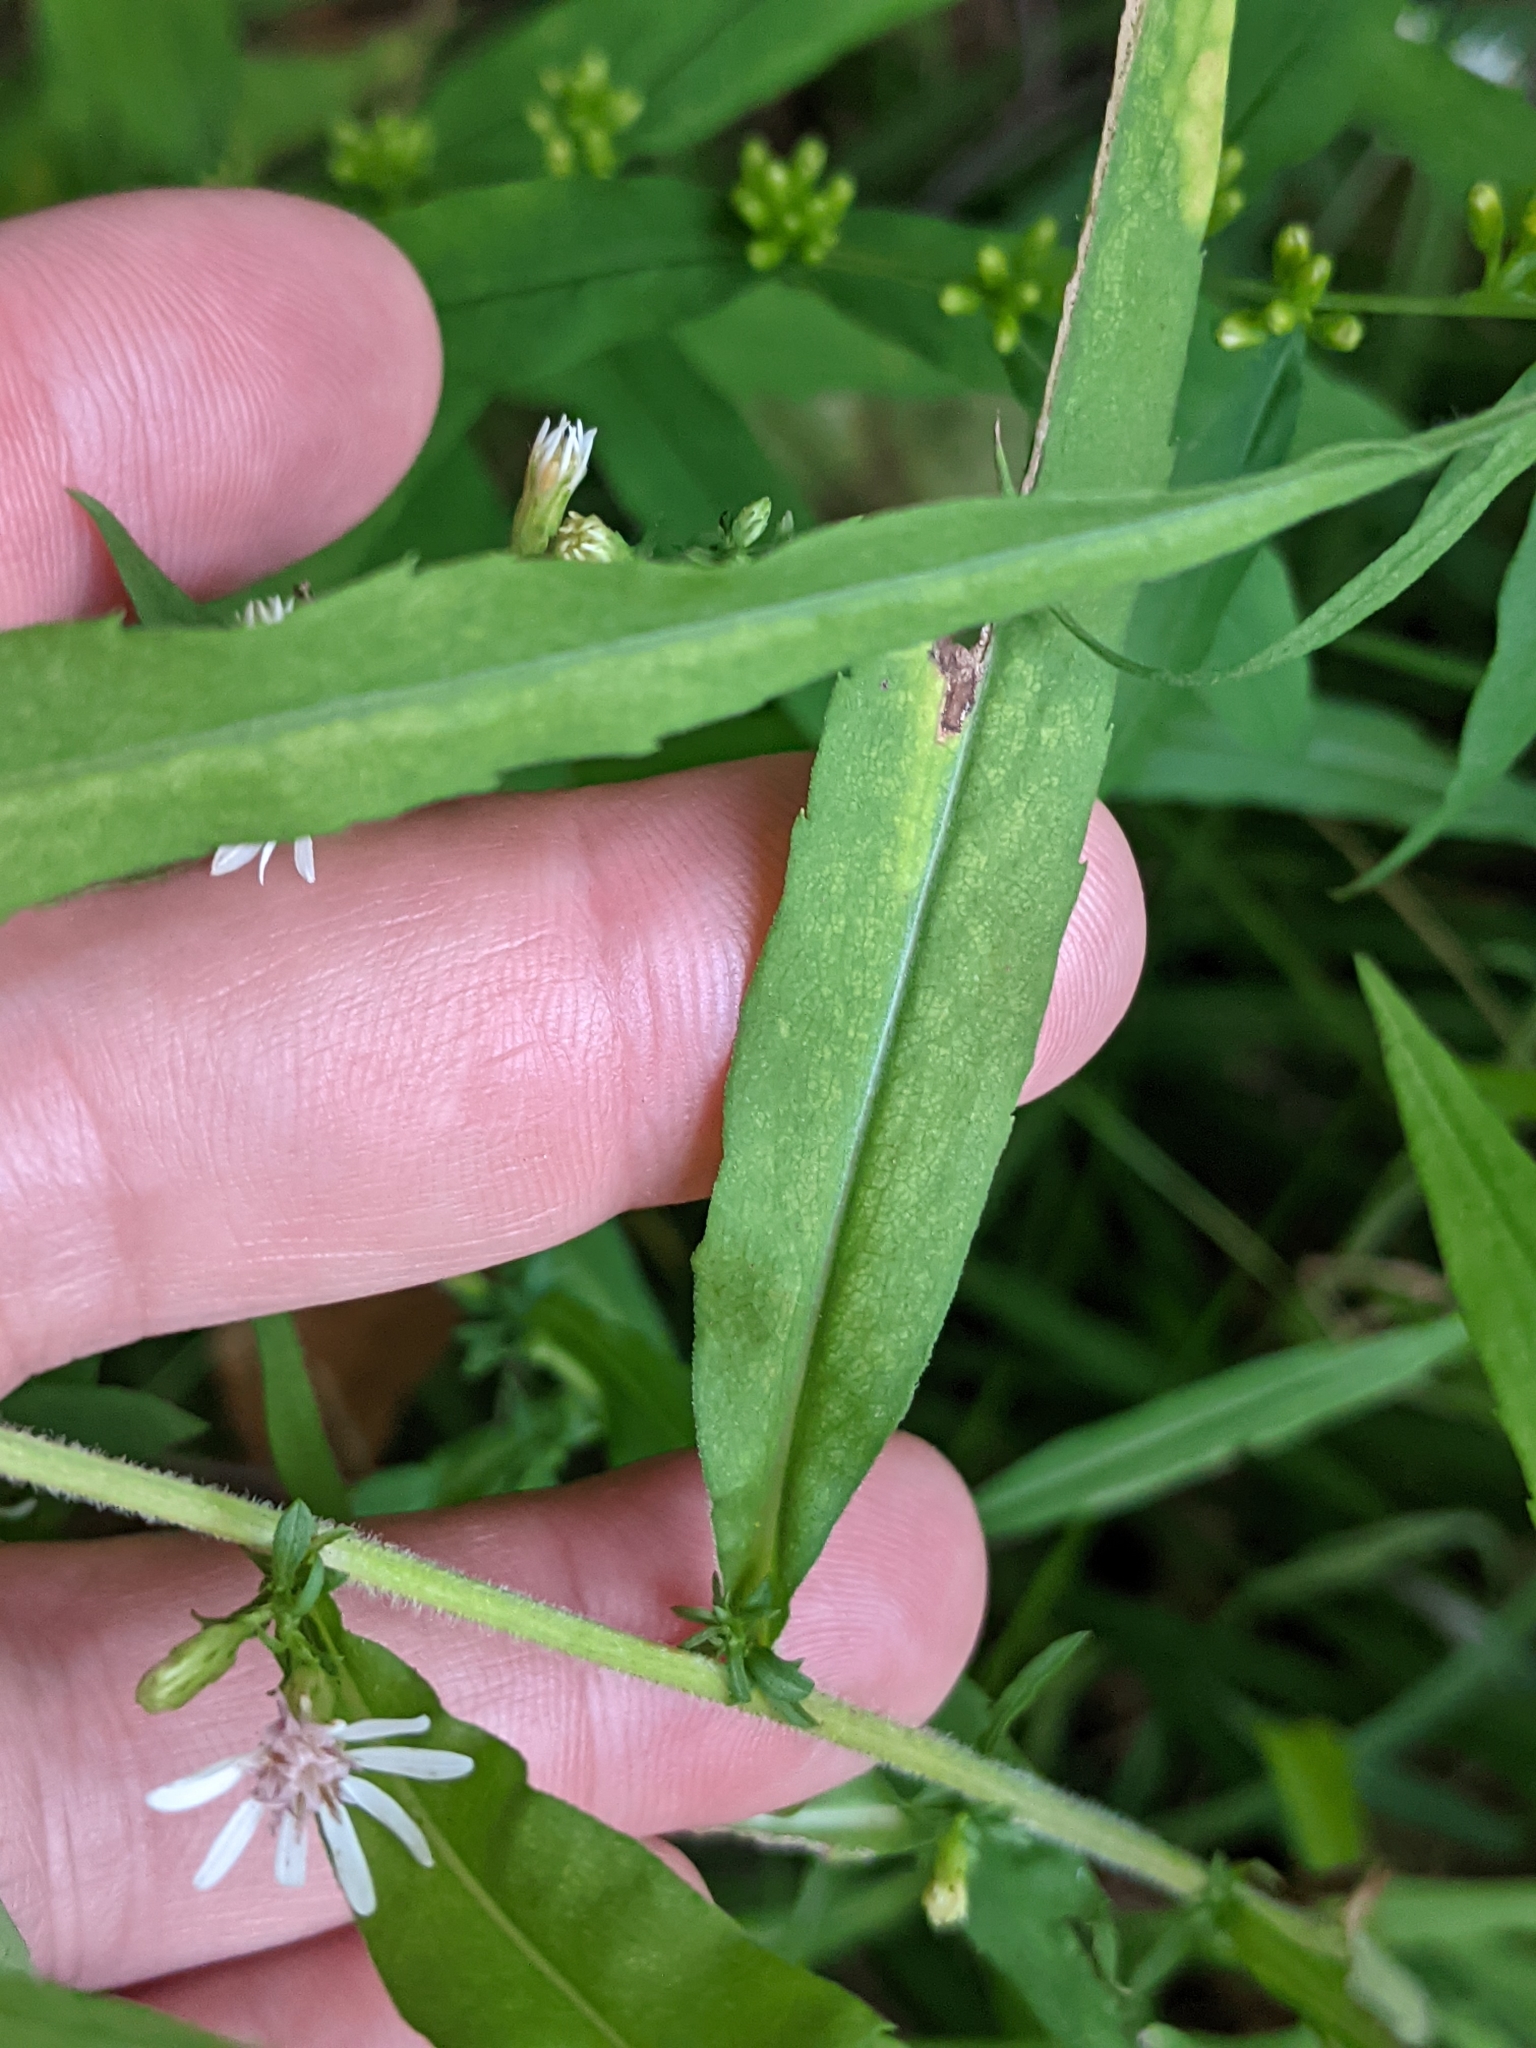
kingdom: Plantae
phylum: Tracheophyta
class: Magnoliopsida
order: Asterales
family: Asteraceae
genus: Symphyotrichum
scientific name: Symphyotrichum lateriflorum
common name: Calico aster
